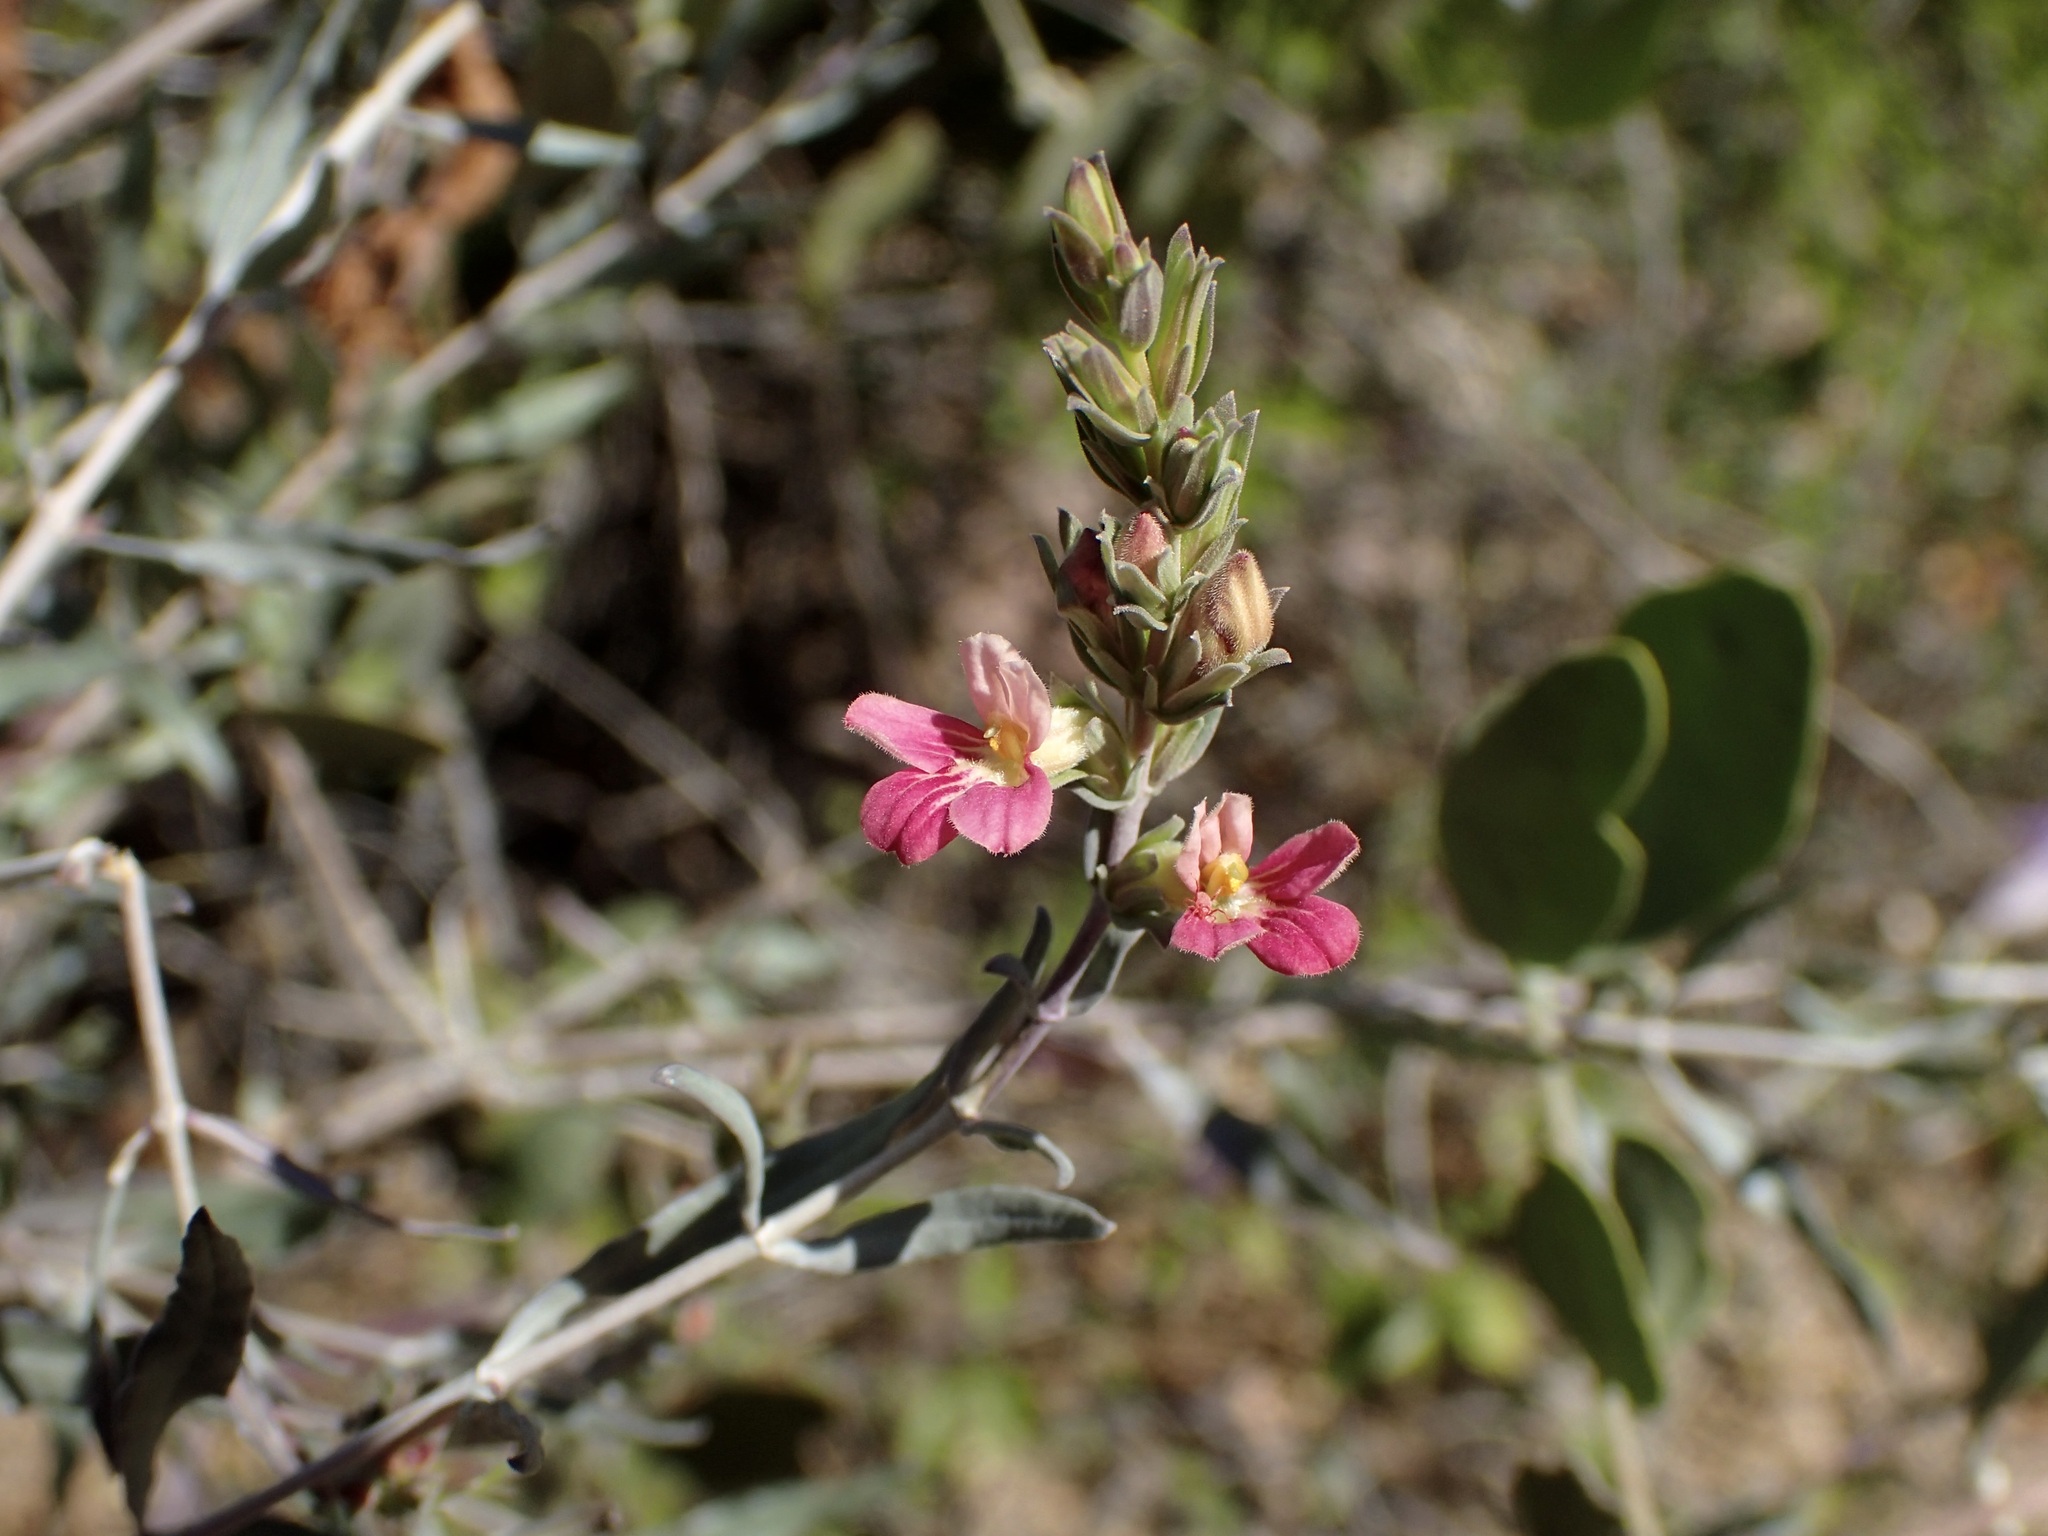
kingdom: Plantae
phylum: Tracheophyta
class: Magnoliopsida
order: Lamiales
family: Acanthaceae
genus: Holographis
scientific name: Holographis virgata
